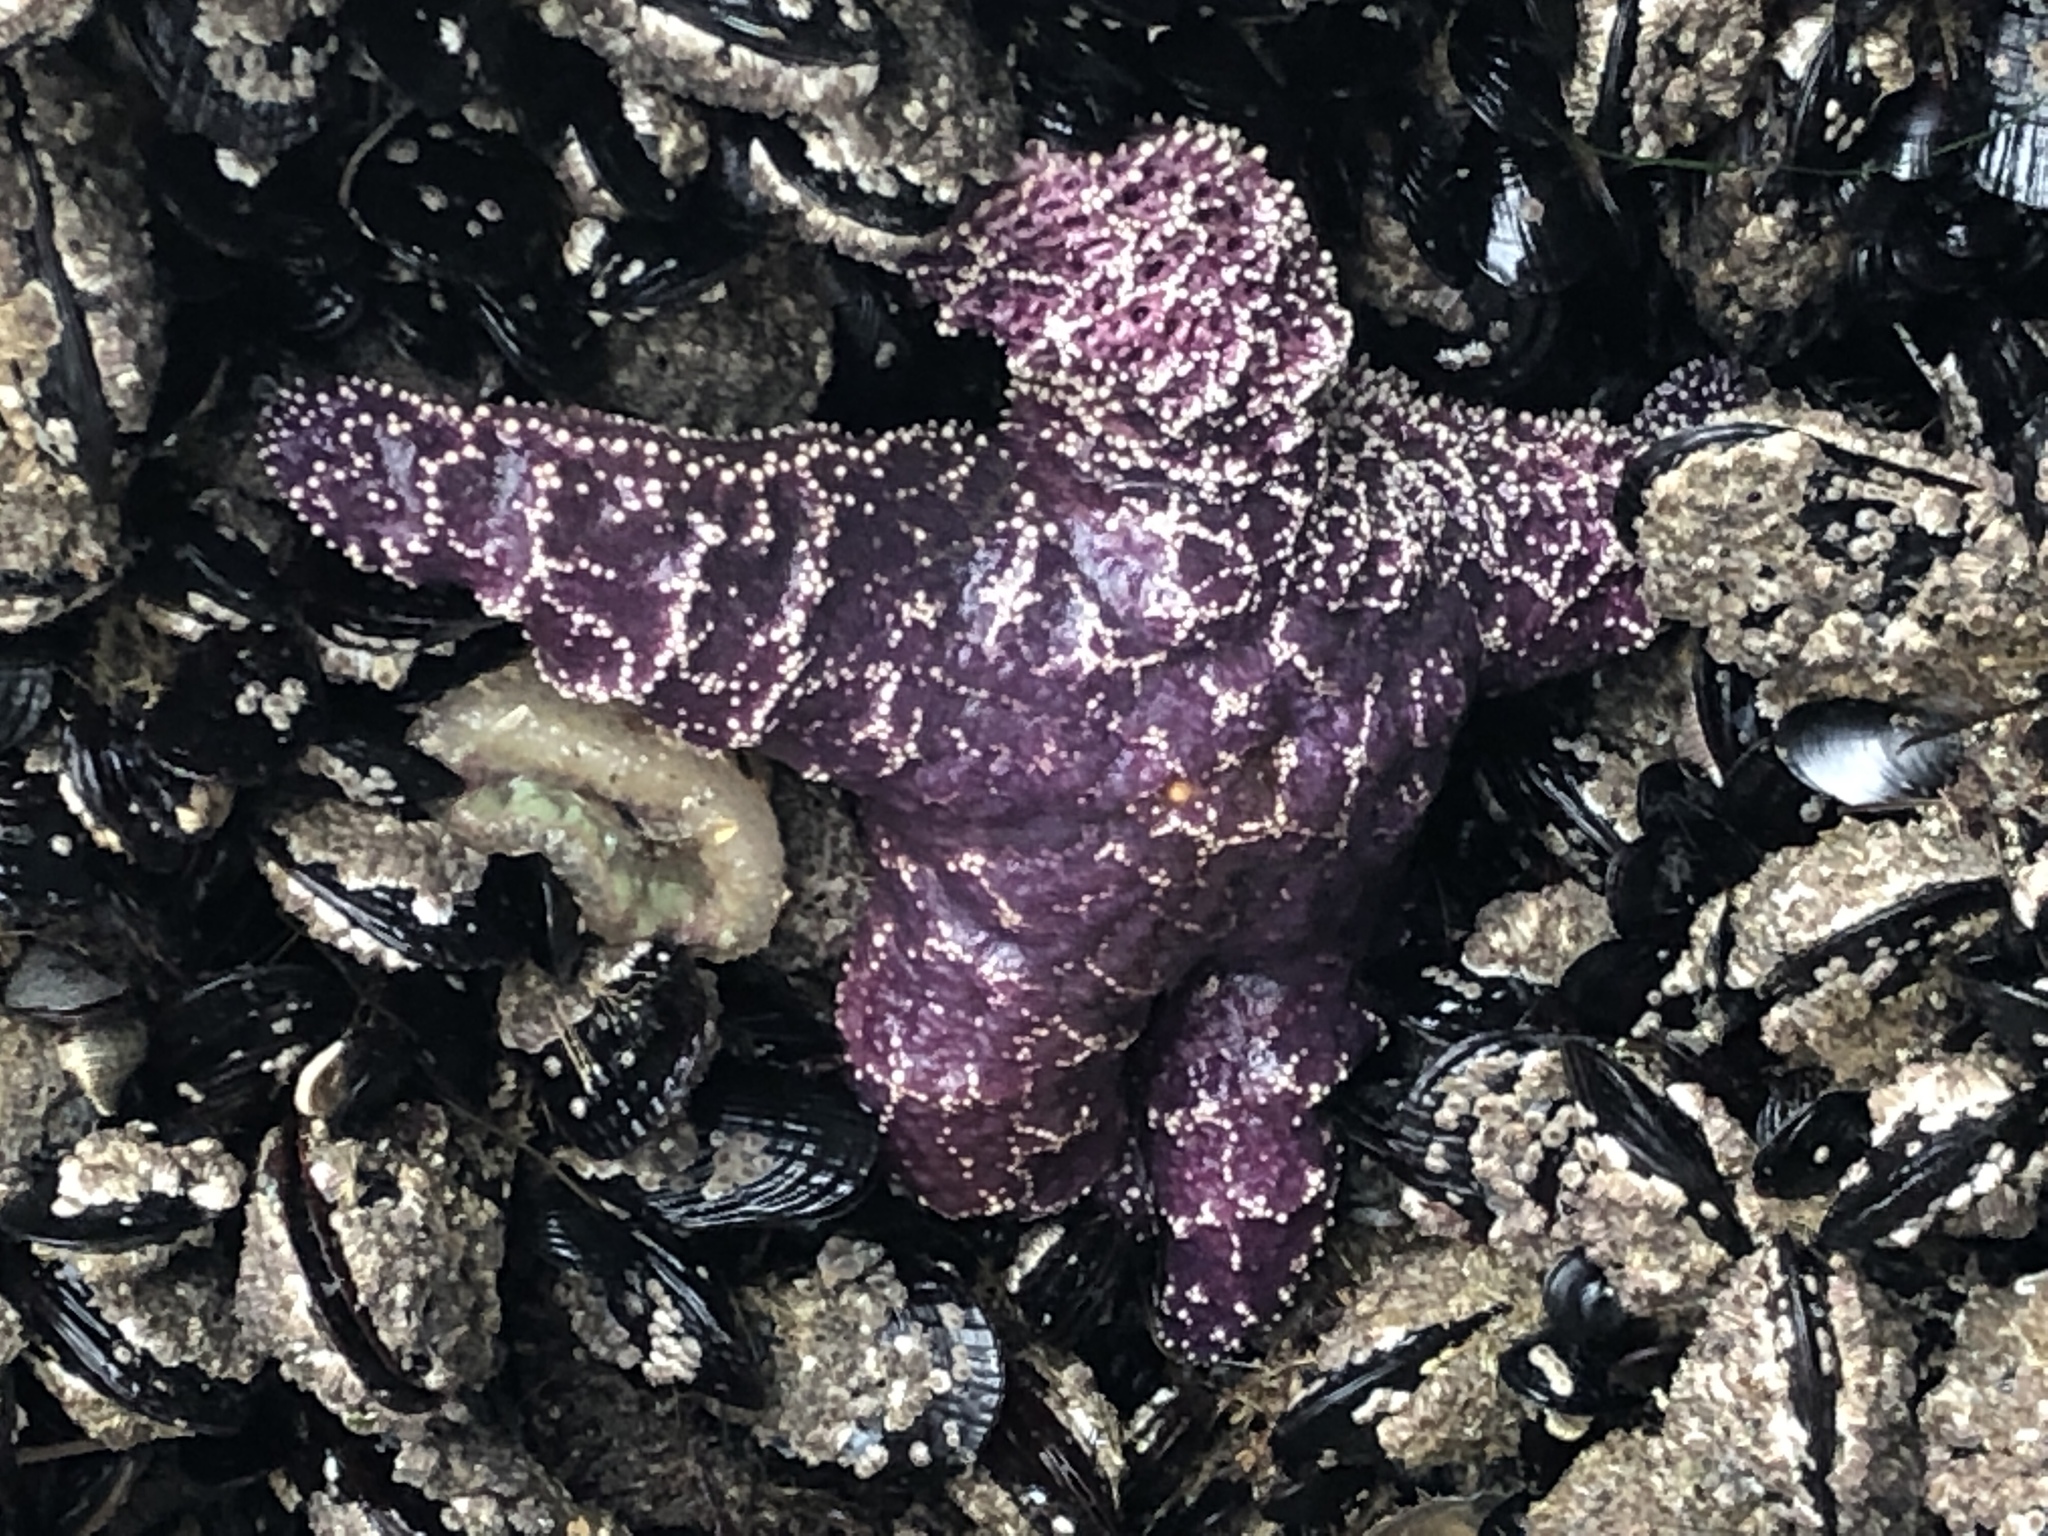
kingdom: Animalia
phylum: Echinodermata
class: Asteroidea
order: Forcipulatida
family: Asteriidae
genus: Pisaster
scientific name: Pisaster ochraceus
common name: Ochre stars
